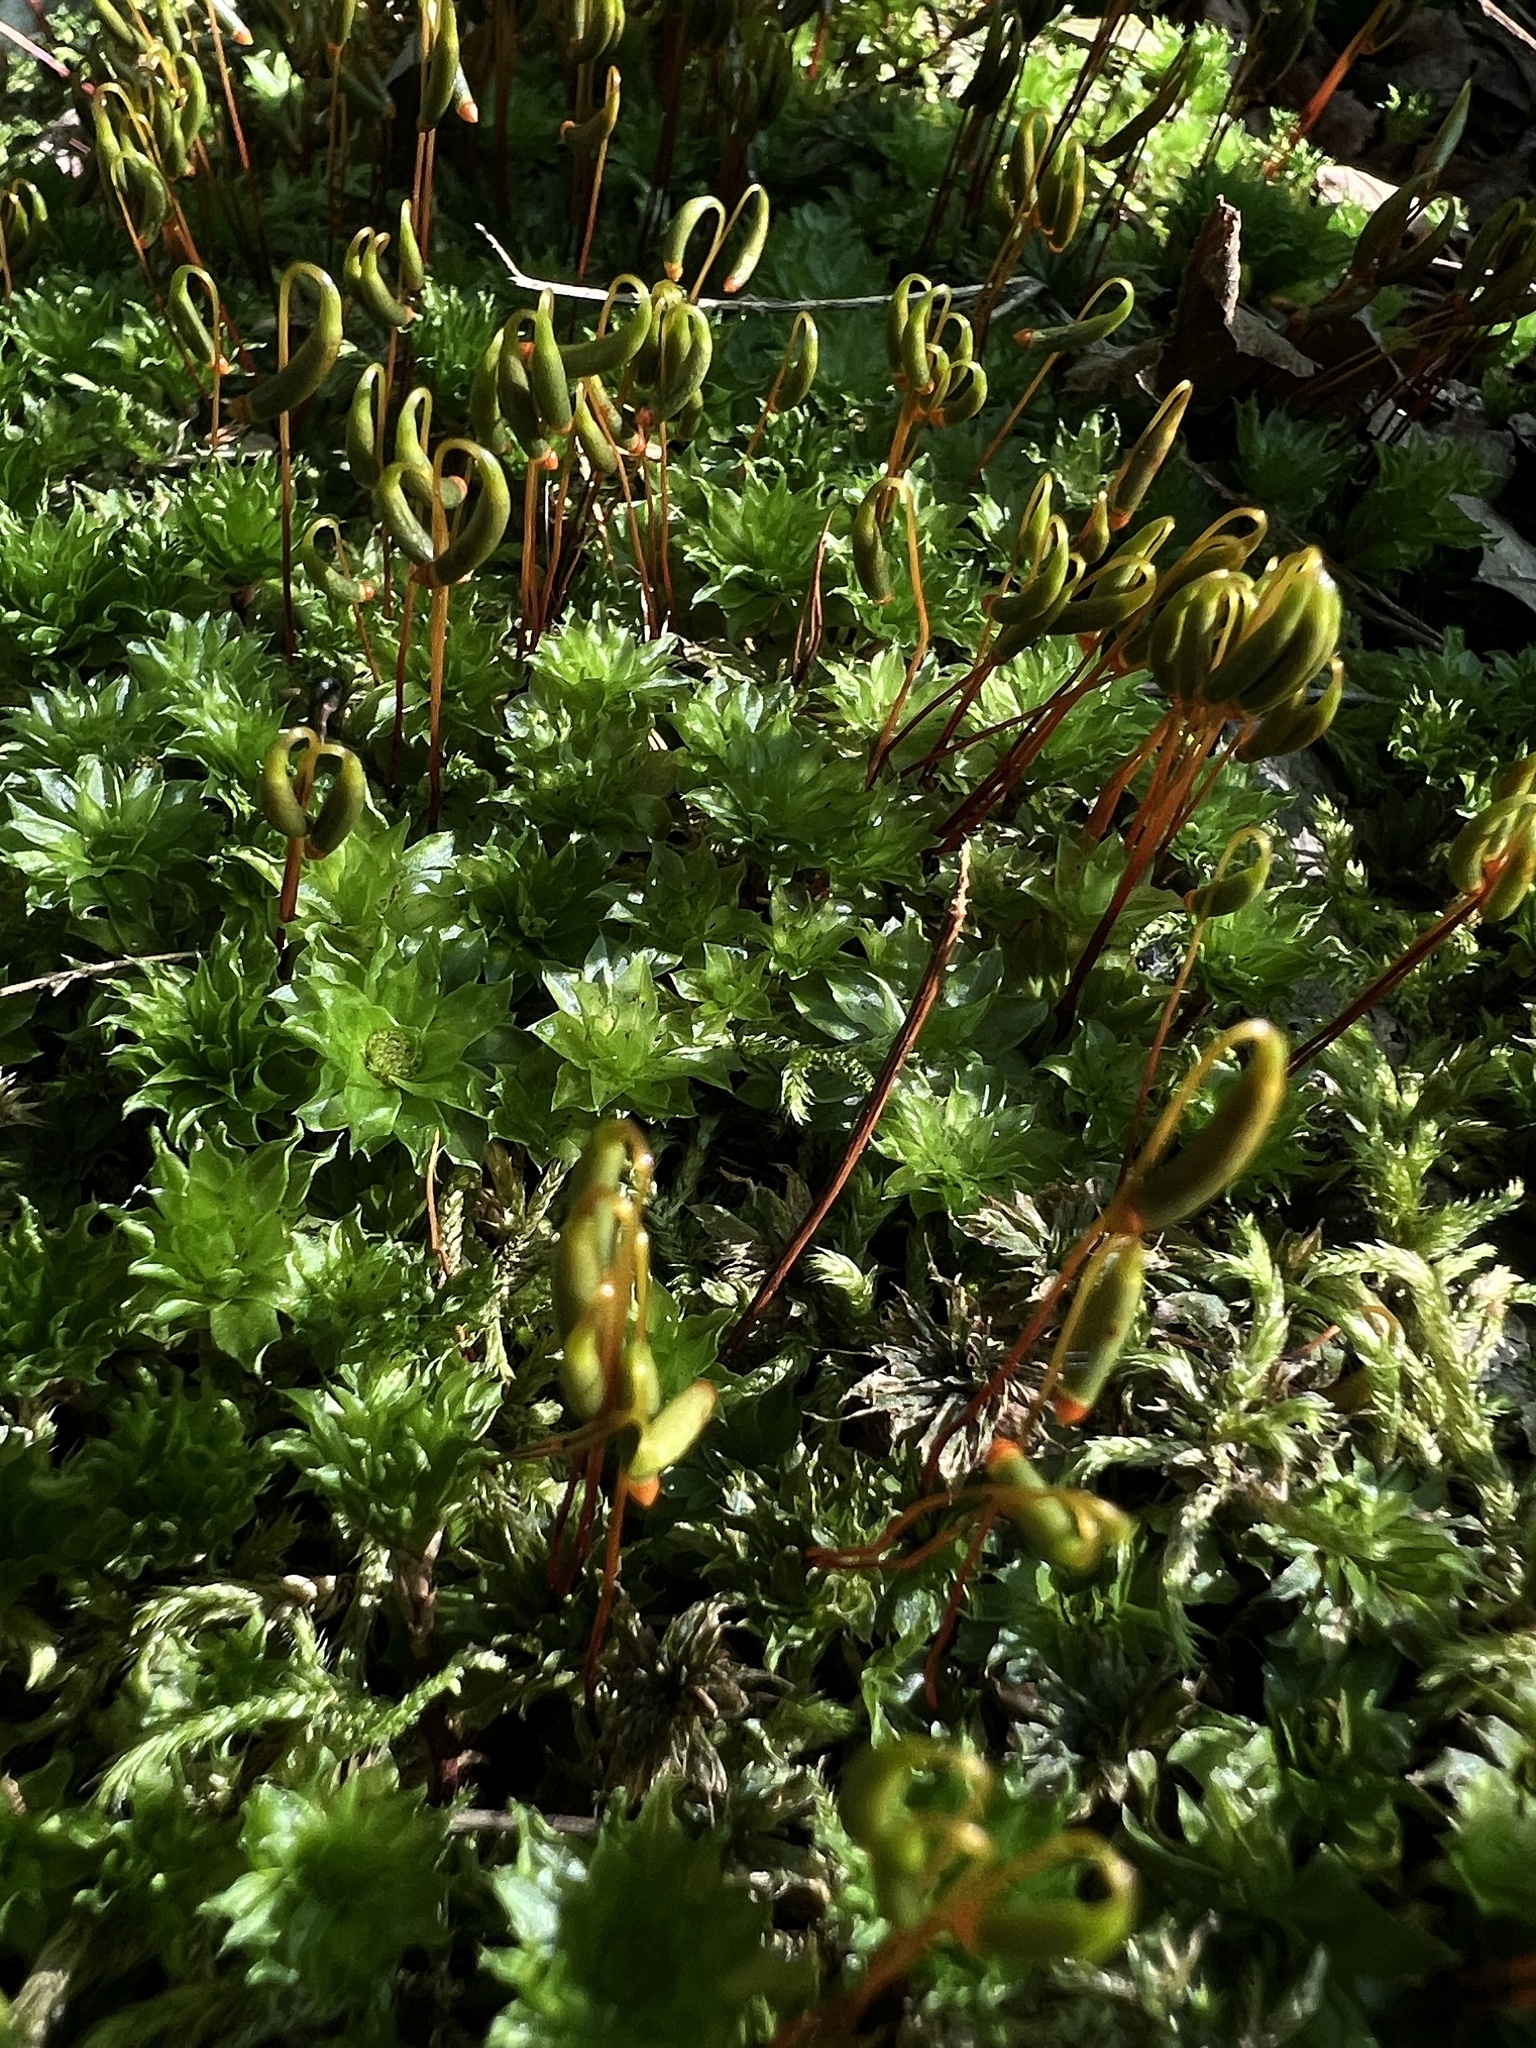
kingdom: Plantae
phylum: Bryophyta
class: Bryopsida
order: Bryales
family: Bryaceae
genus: Rhodobryum
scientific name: Rhodobryum ontariense
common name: Ontario rhodobryum moss
